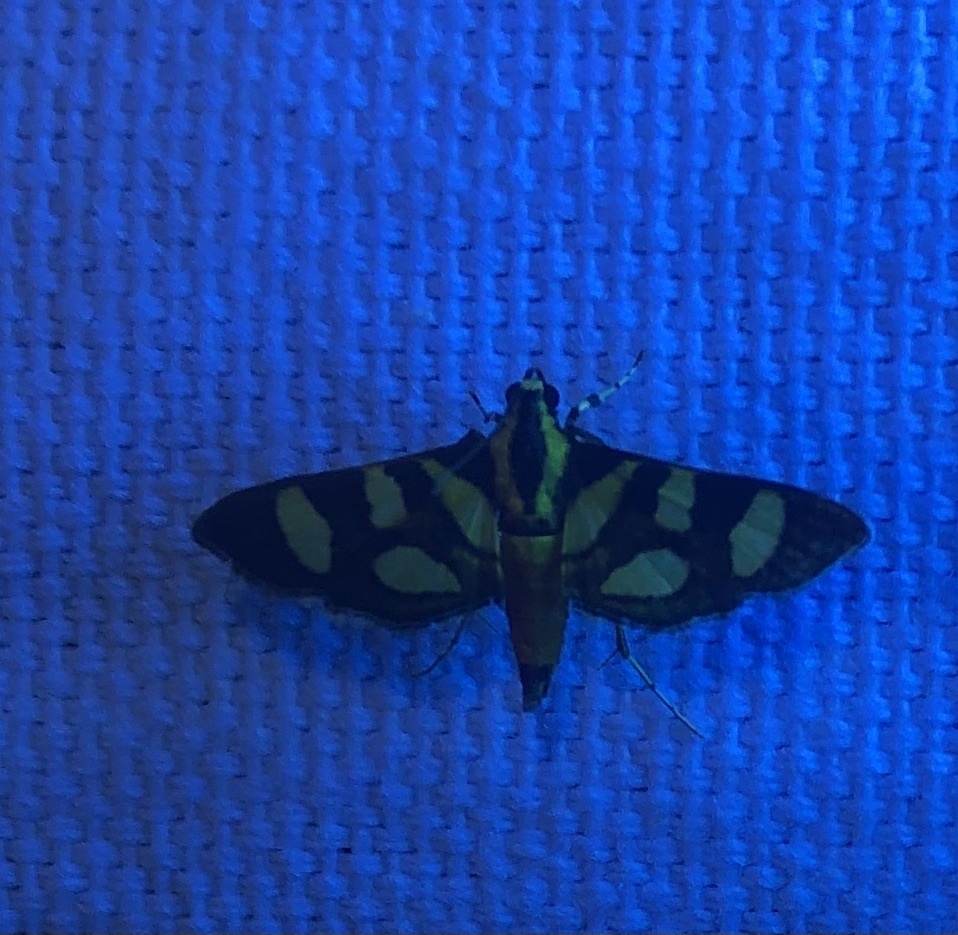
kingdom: Animalia
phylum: Arthropoda
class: Insecta
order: Lepidoptera
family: Crambidae
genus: Syngamia
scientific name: Syngamia florella
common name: Orange-spotted flower moth
